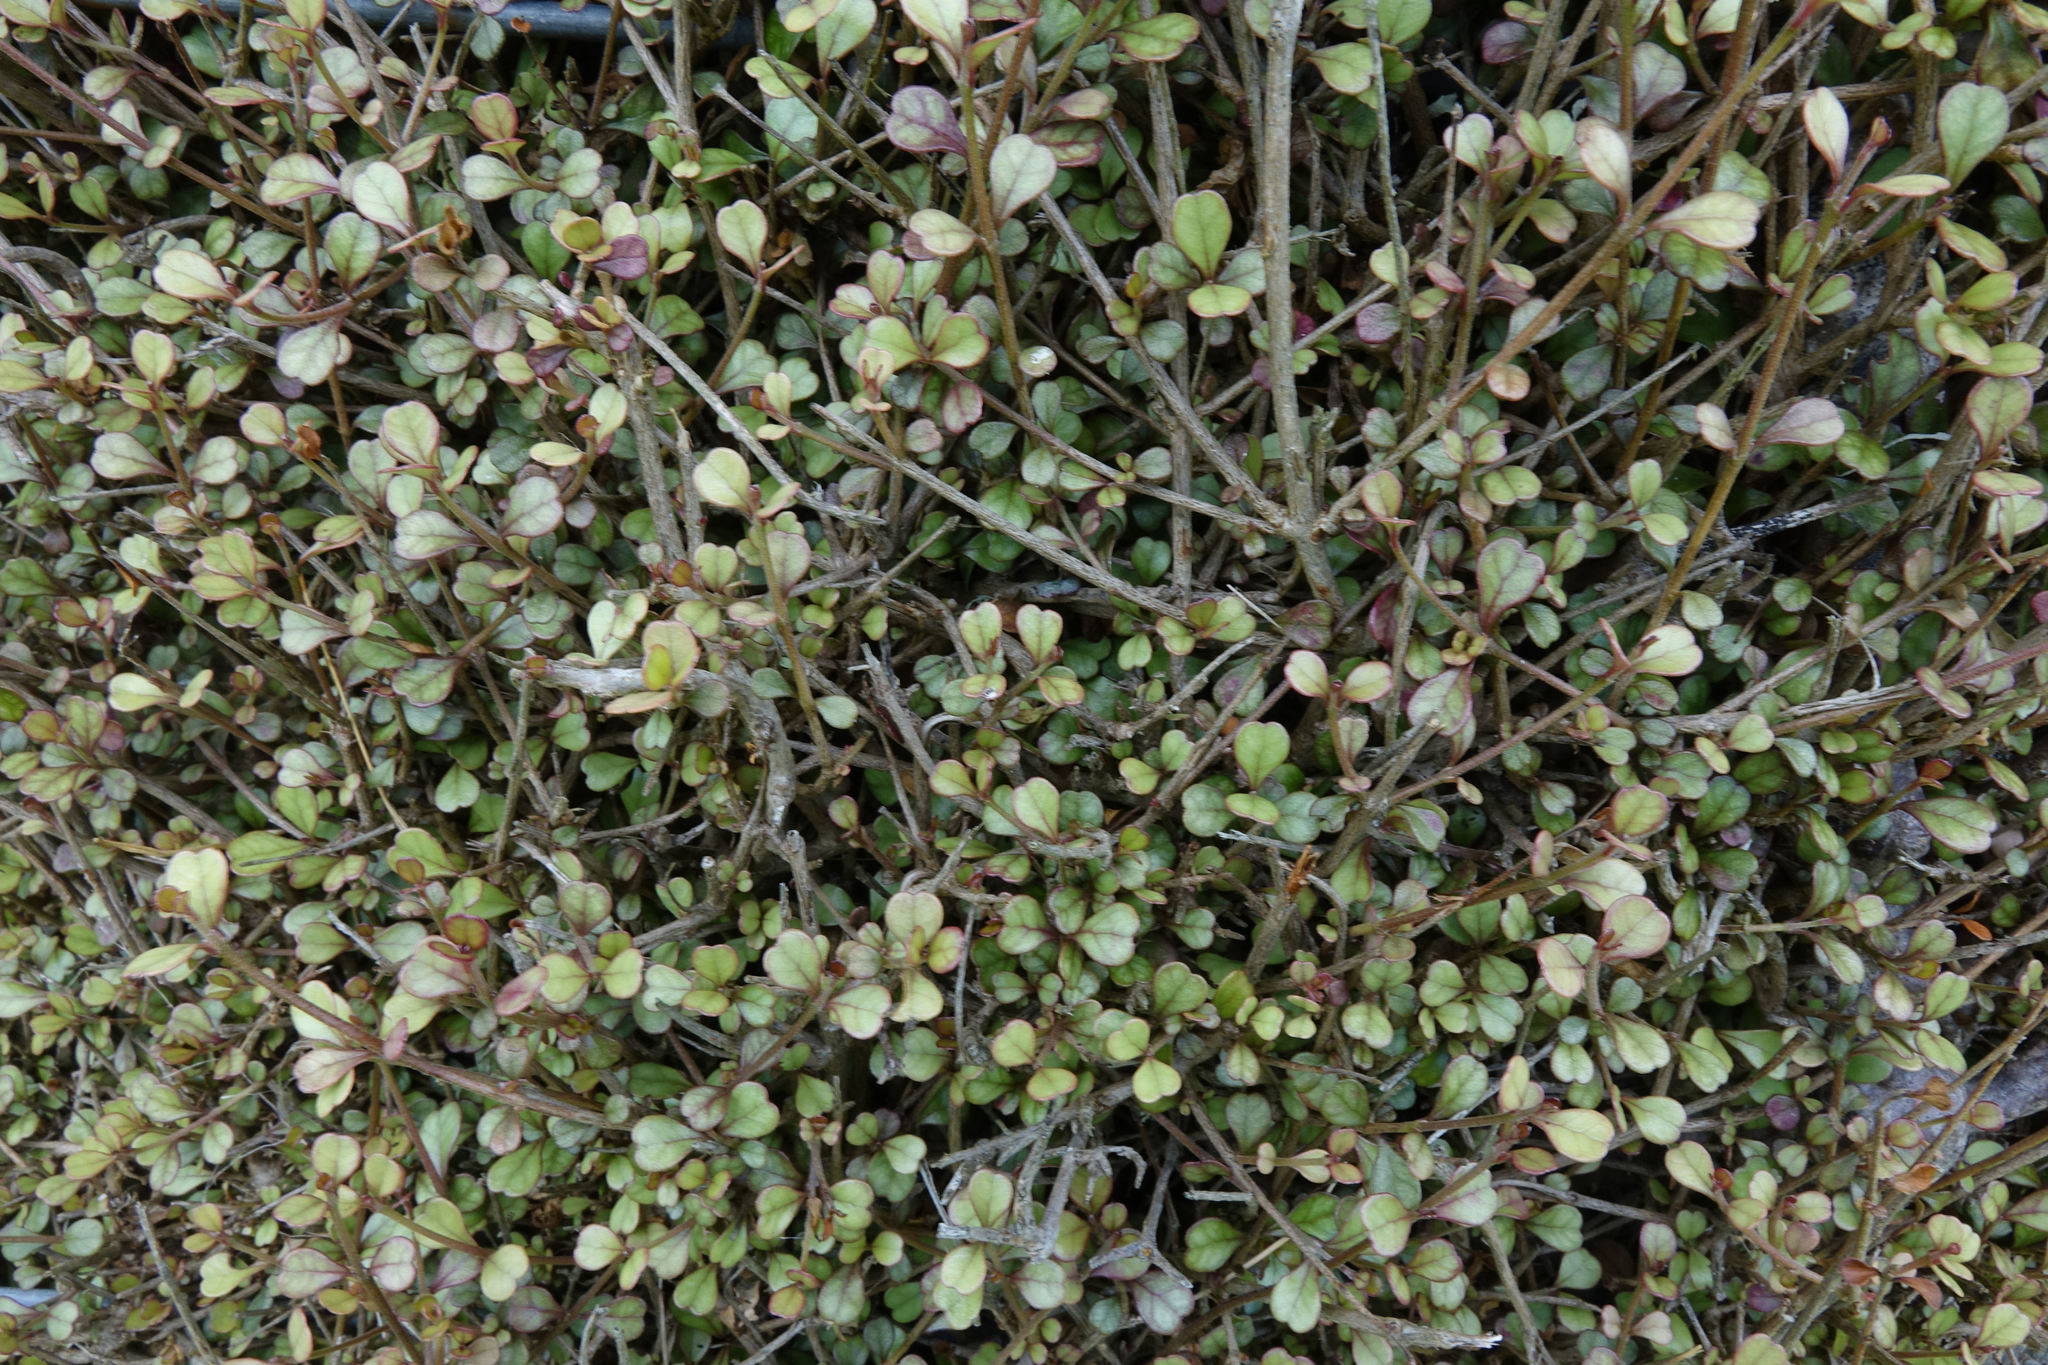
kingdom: Plantae
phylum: Tracheophyta
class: Magnoliopsida
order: Myrtales
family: Myrtaceae
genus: Lophomyrtus
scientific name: Lophomyrtus obcordata
